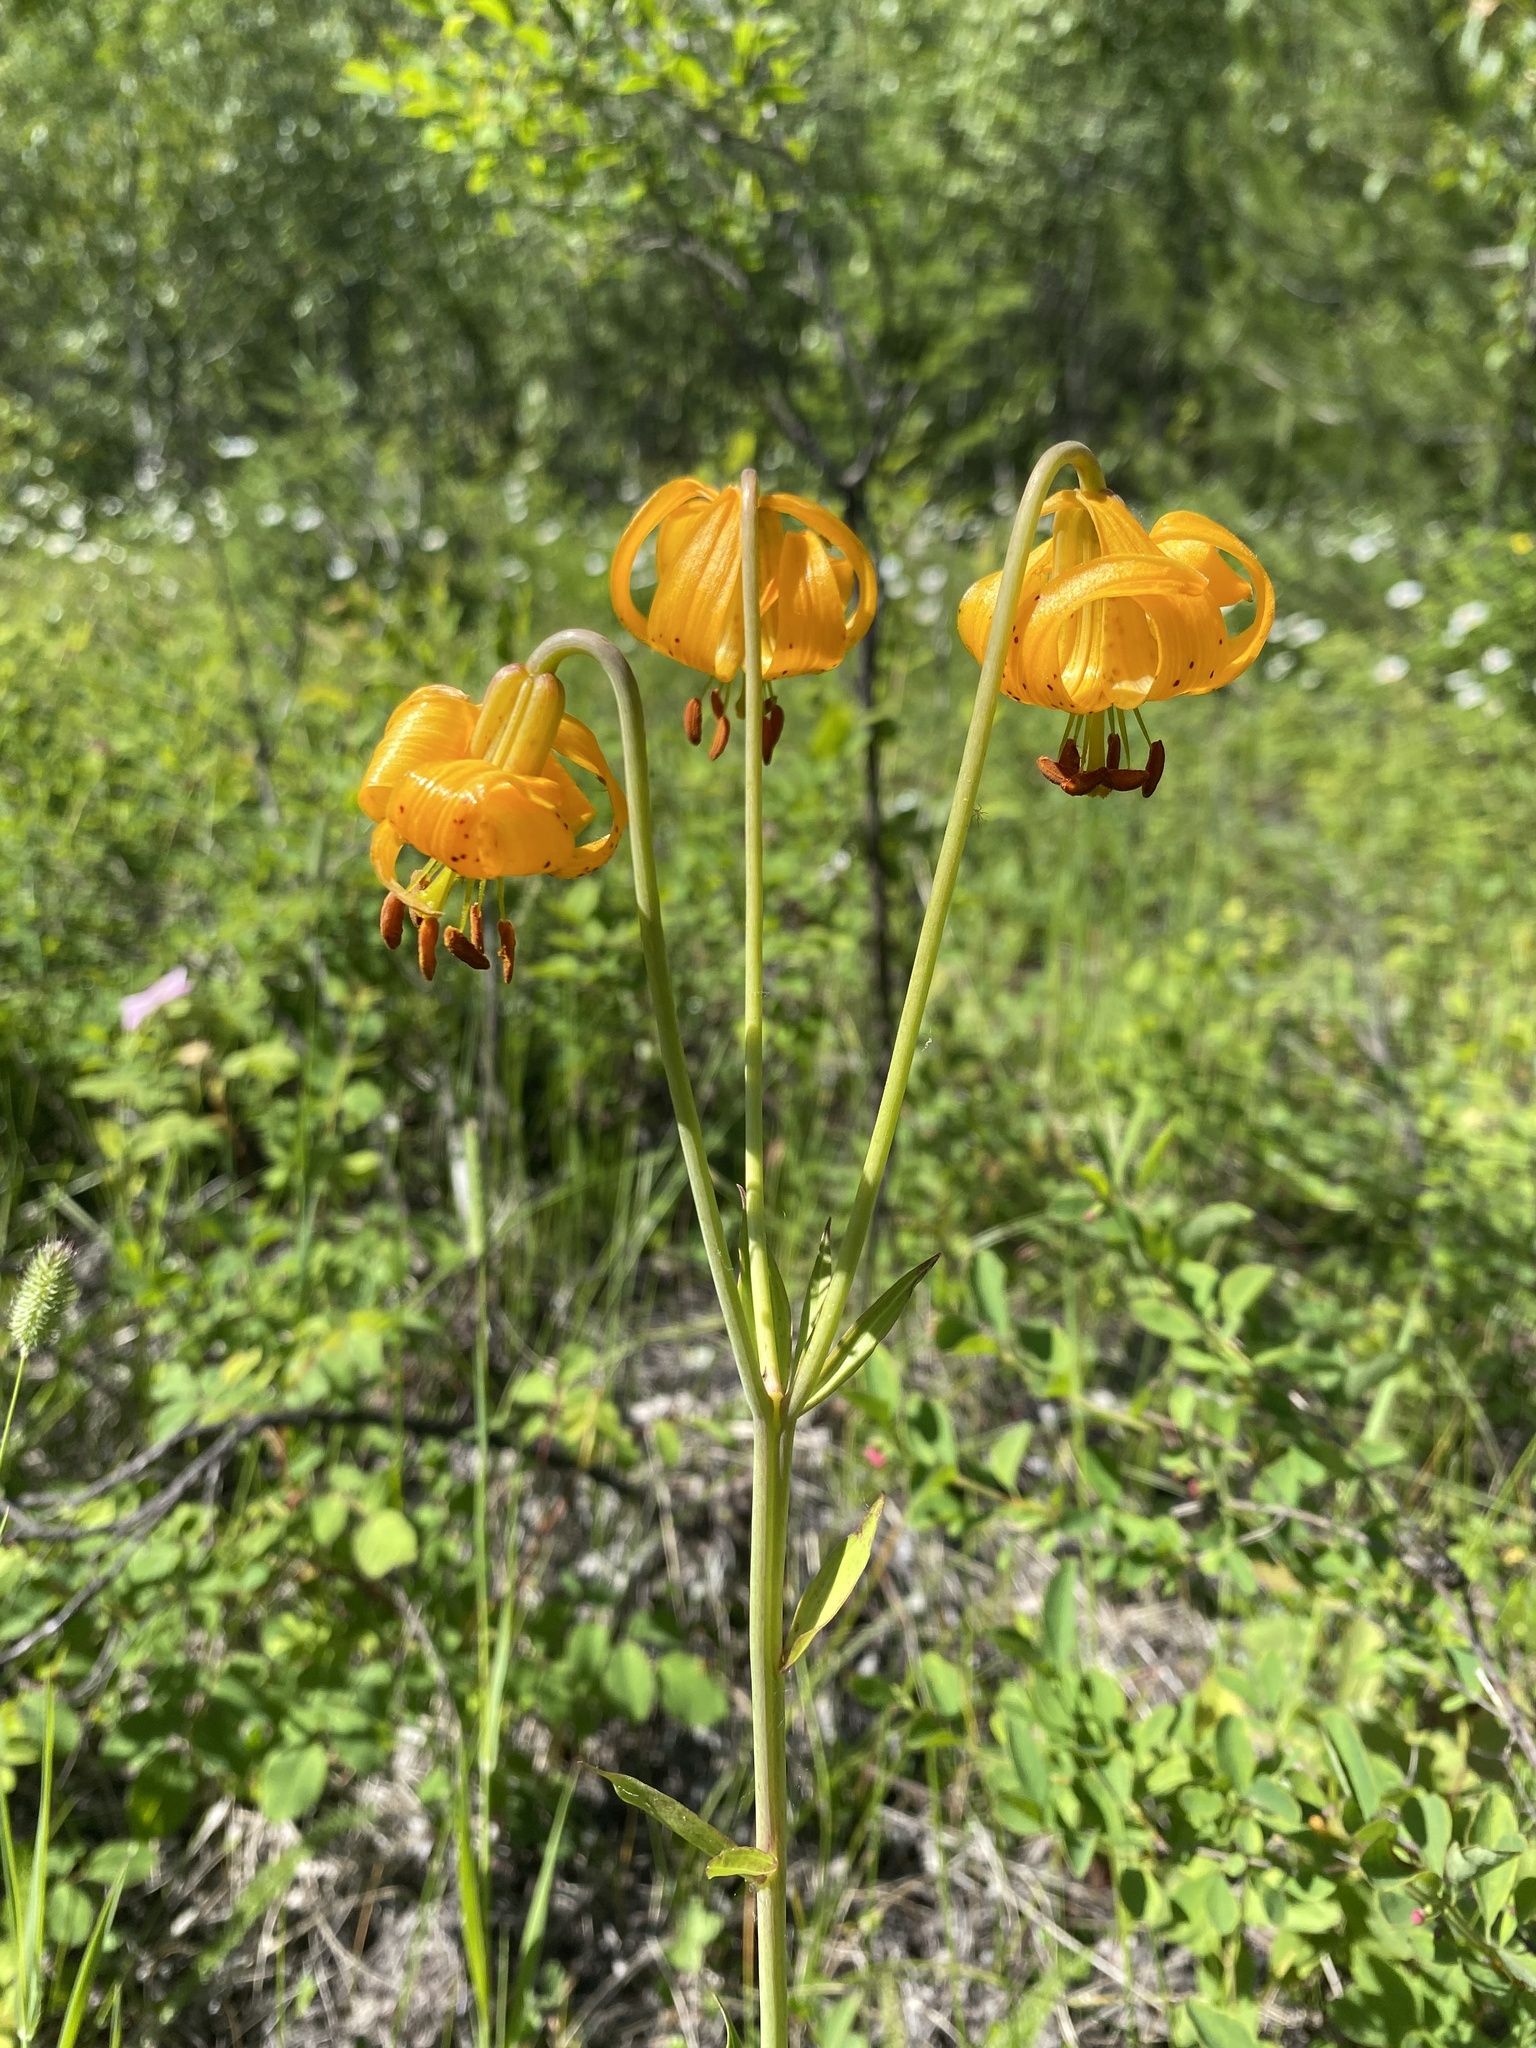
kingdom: Plantae
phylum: Tracheophyta
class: Liliopsida
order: Liliales
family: Liliaceae
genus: Lilium
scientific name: Lilium columbianum
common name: Columbia lily
